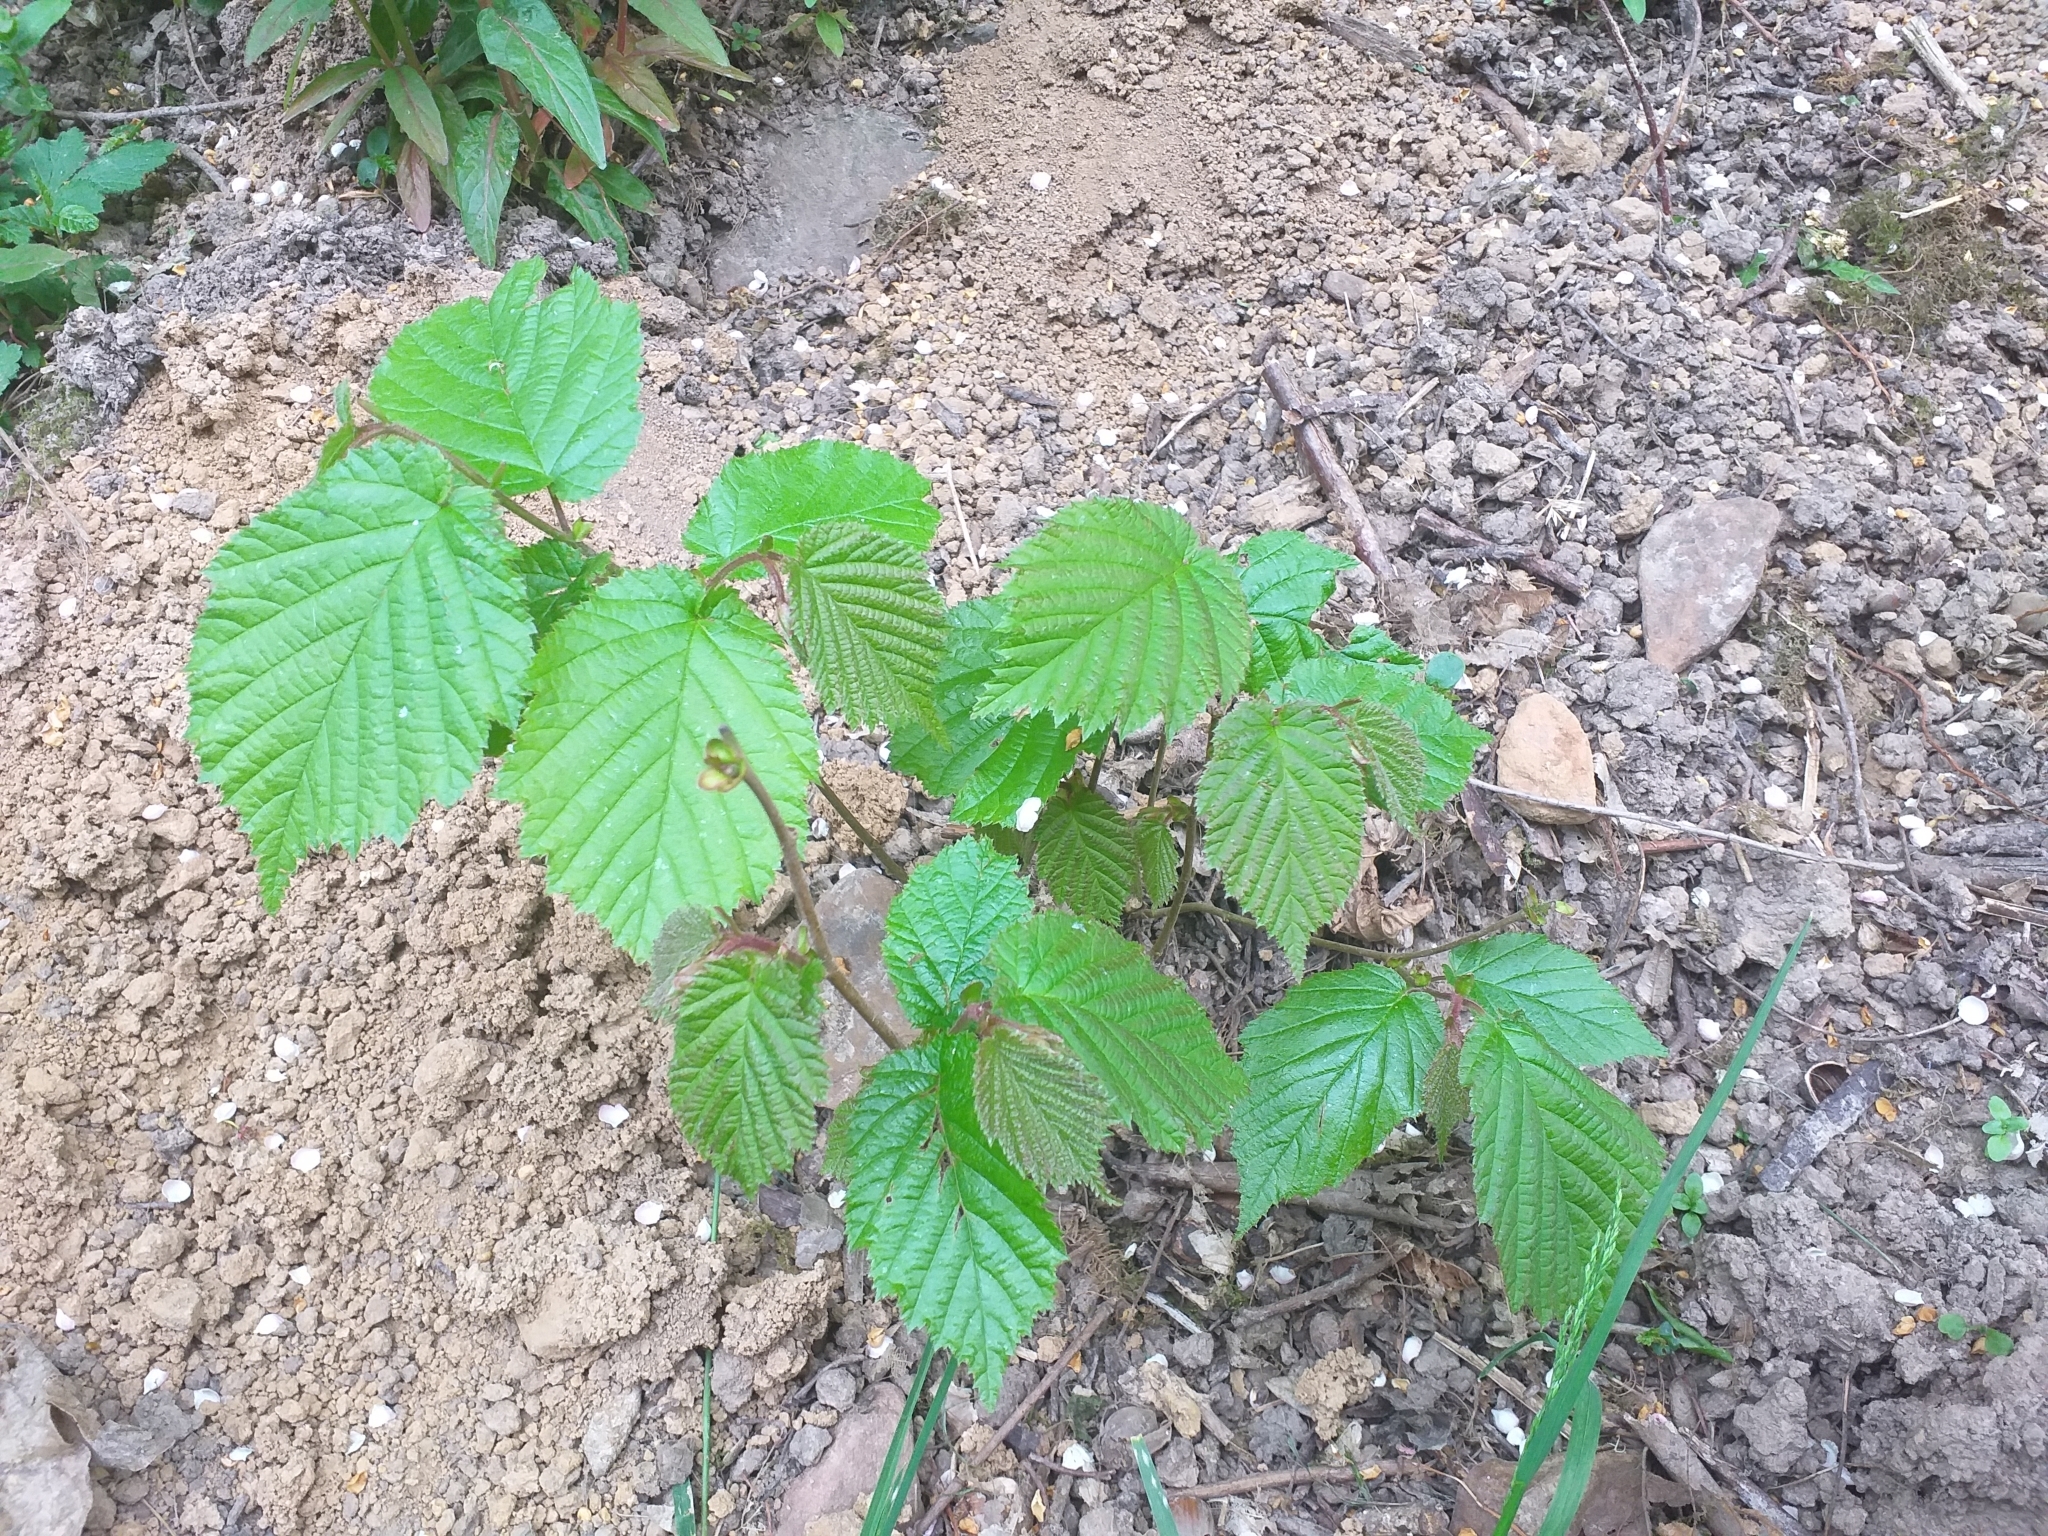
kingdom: Plantae
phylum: Tracheophyta
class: Magnoliopsida
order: Fagales
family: Betulaceae
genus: Corylus
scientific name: Corylus avellana
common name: European hazel
